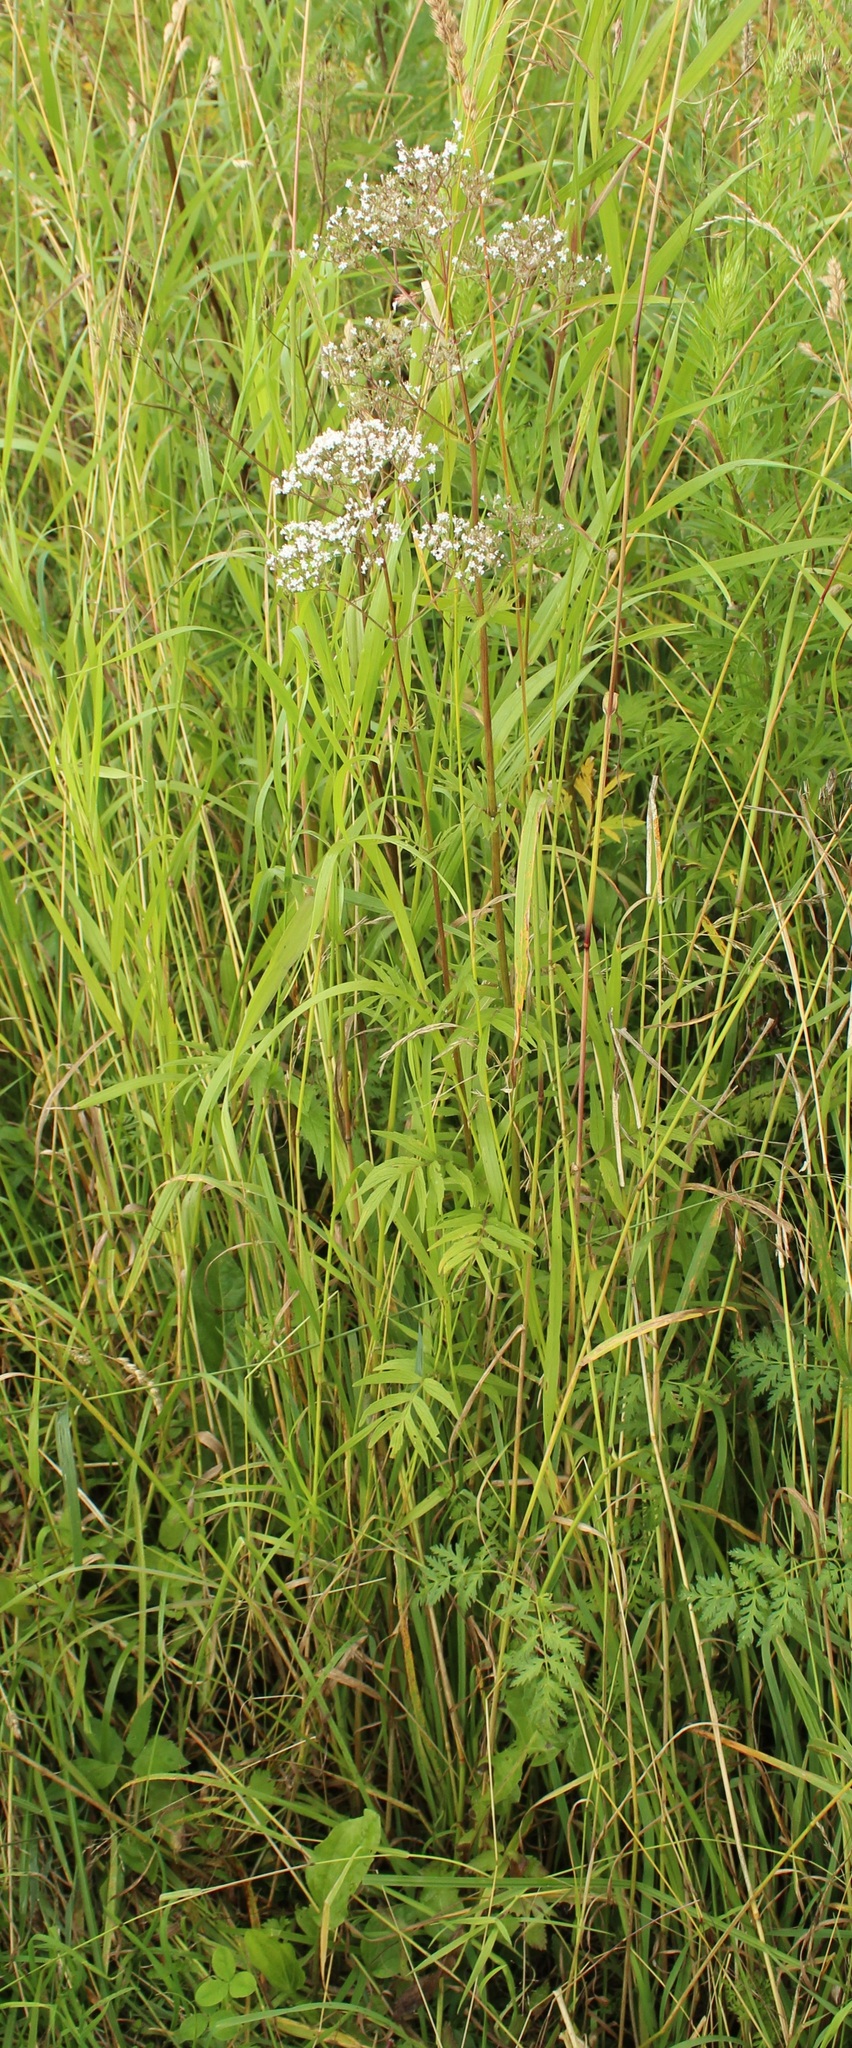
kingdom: Plantae
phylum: Tracheophyta
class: Magnoliopsida
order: Dipsacales
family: Caprifoliaceae
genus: Valeriana
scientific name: Valeriana officinalis
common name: Common valerian
